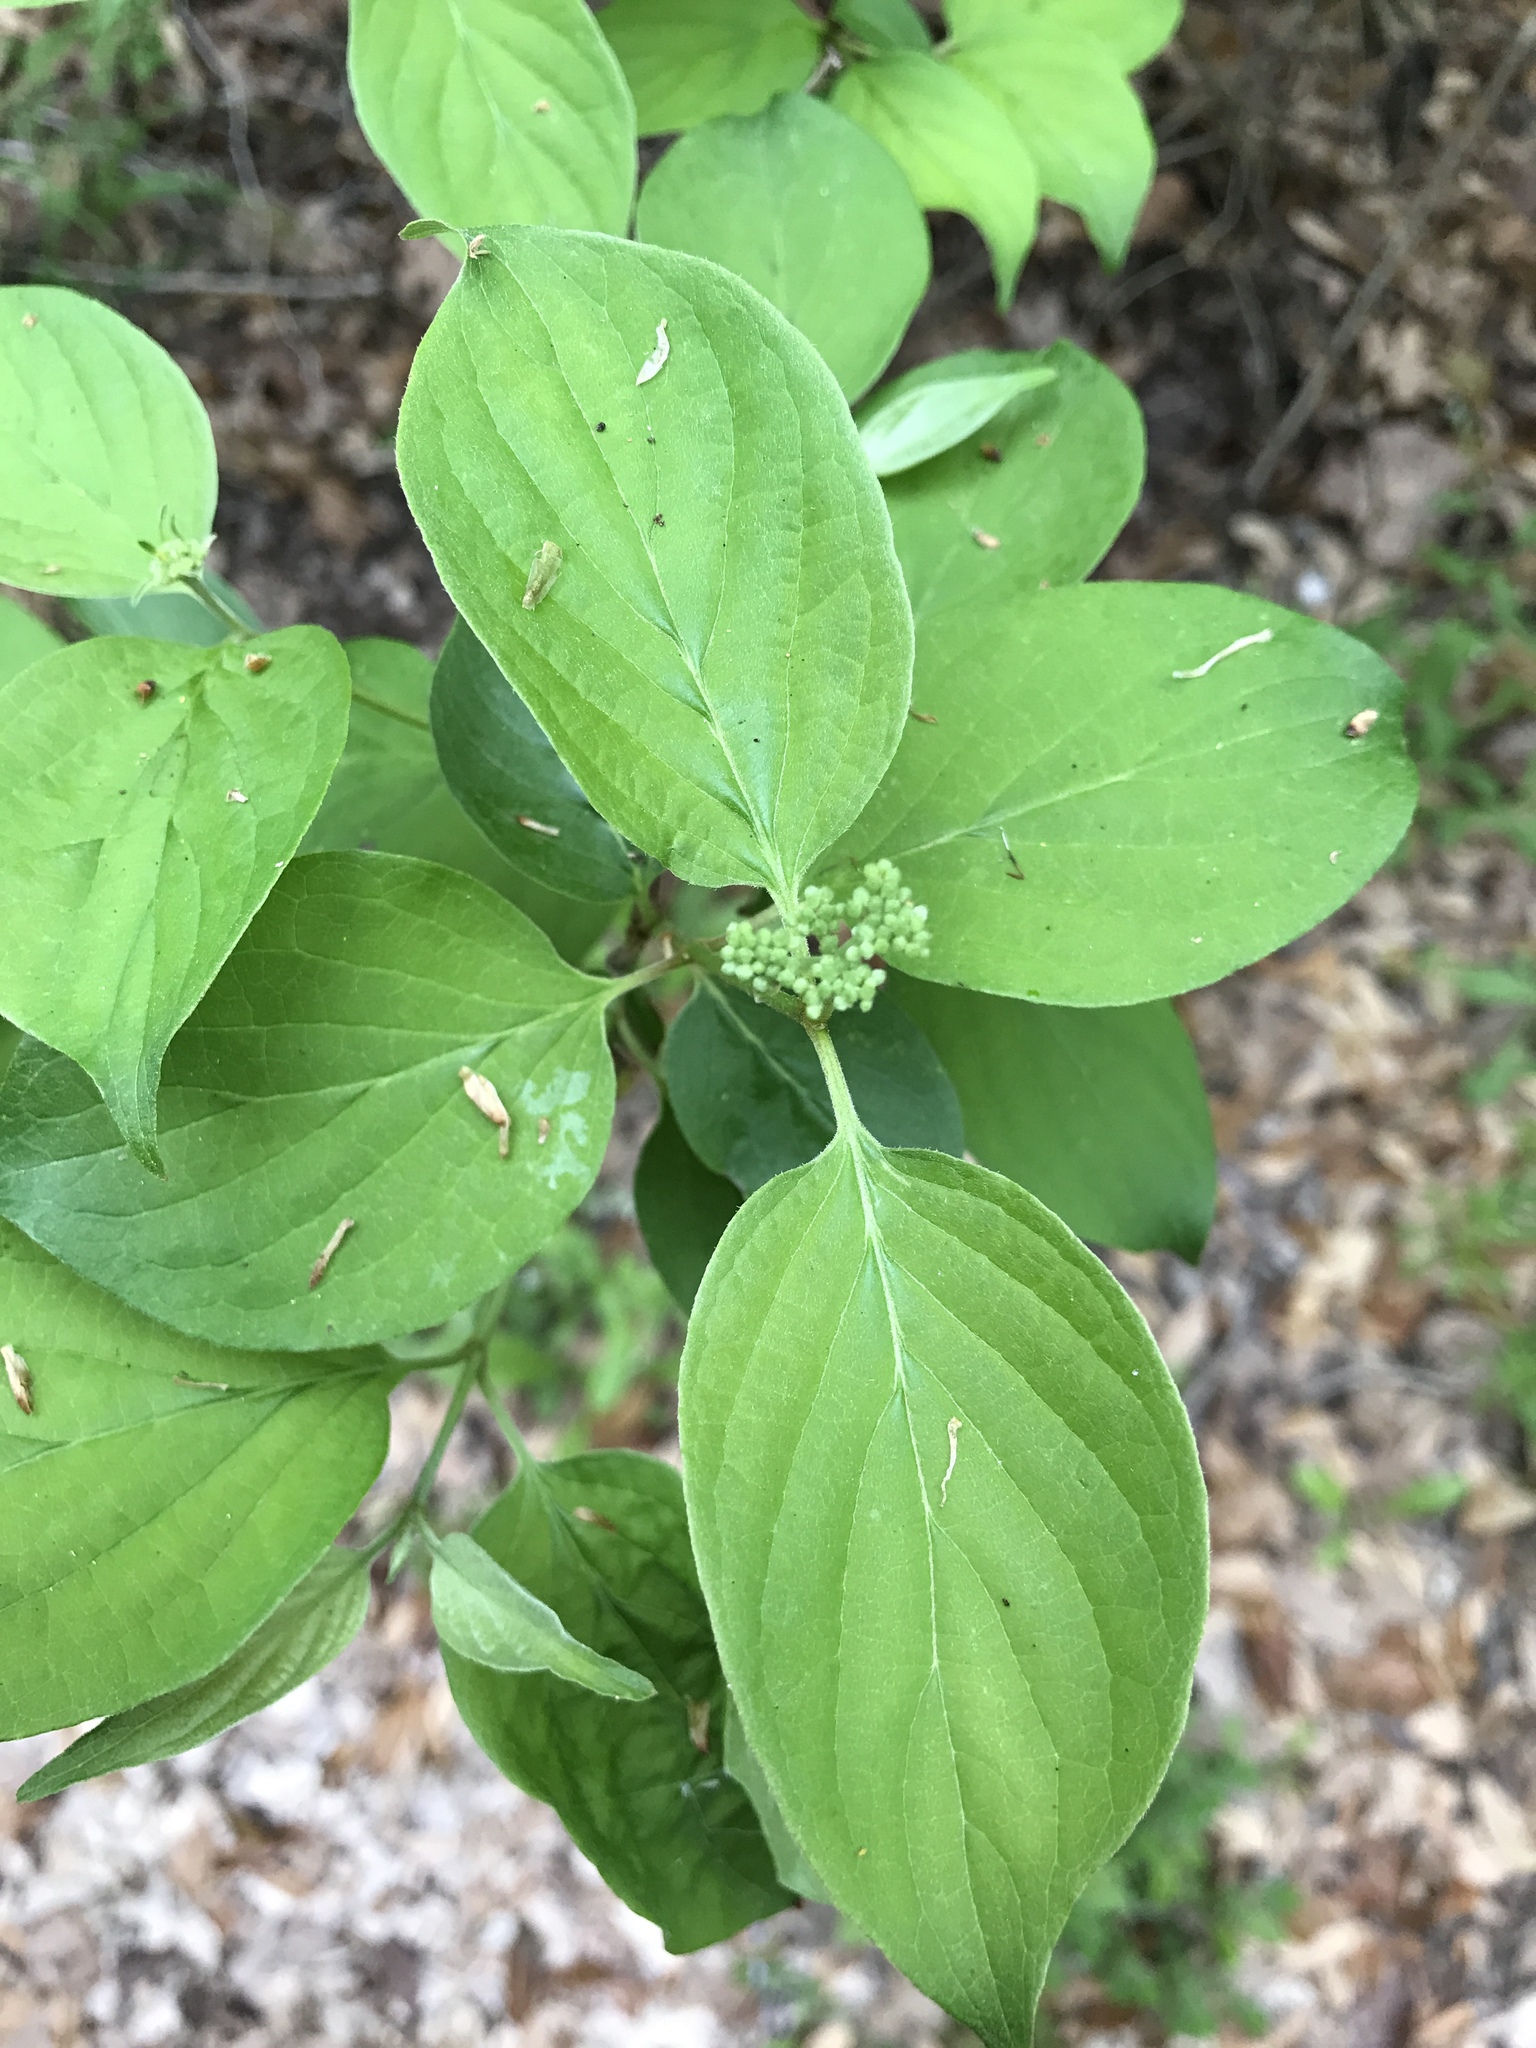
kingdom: Plantae
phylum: Tracheophyta
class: Magnoliopsida
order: Cornales
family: Cornaceae
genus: Cornus
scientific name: Cornus drummondii
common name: Rough-leaf dogwood
